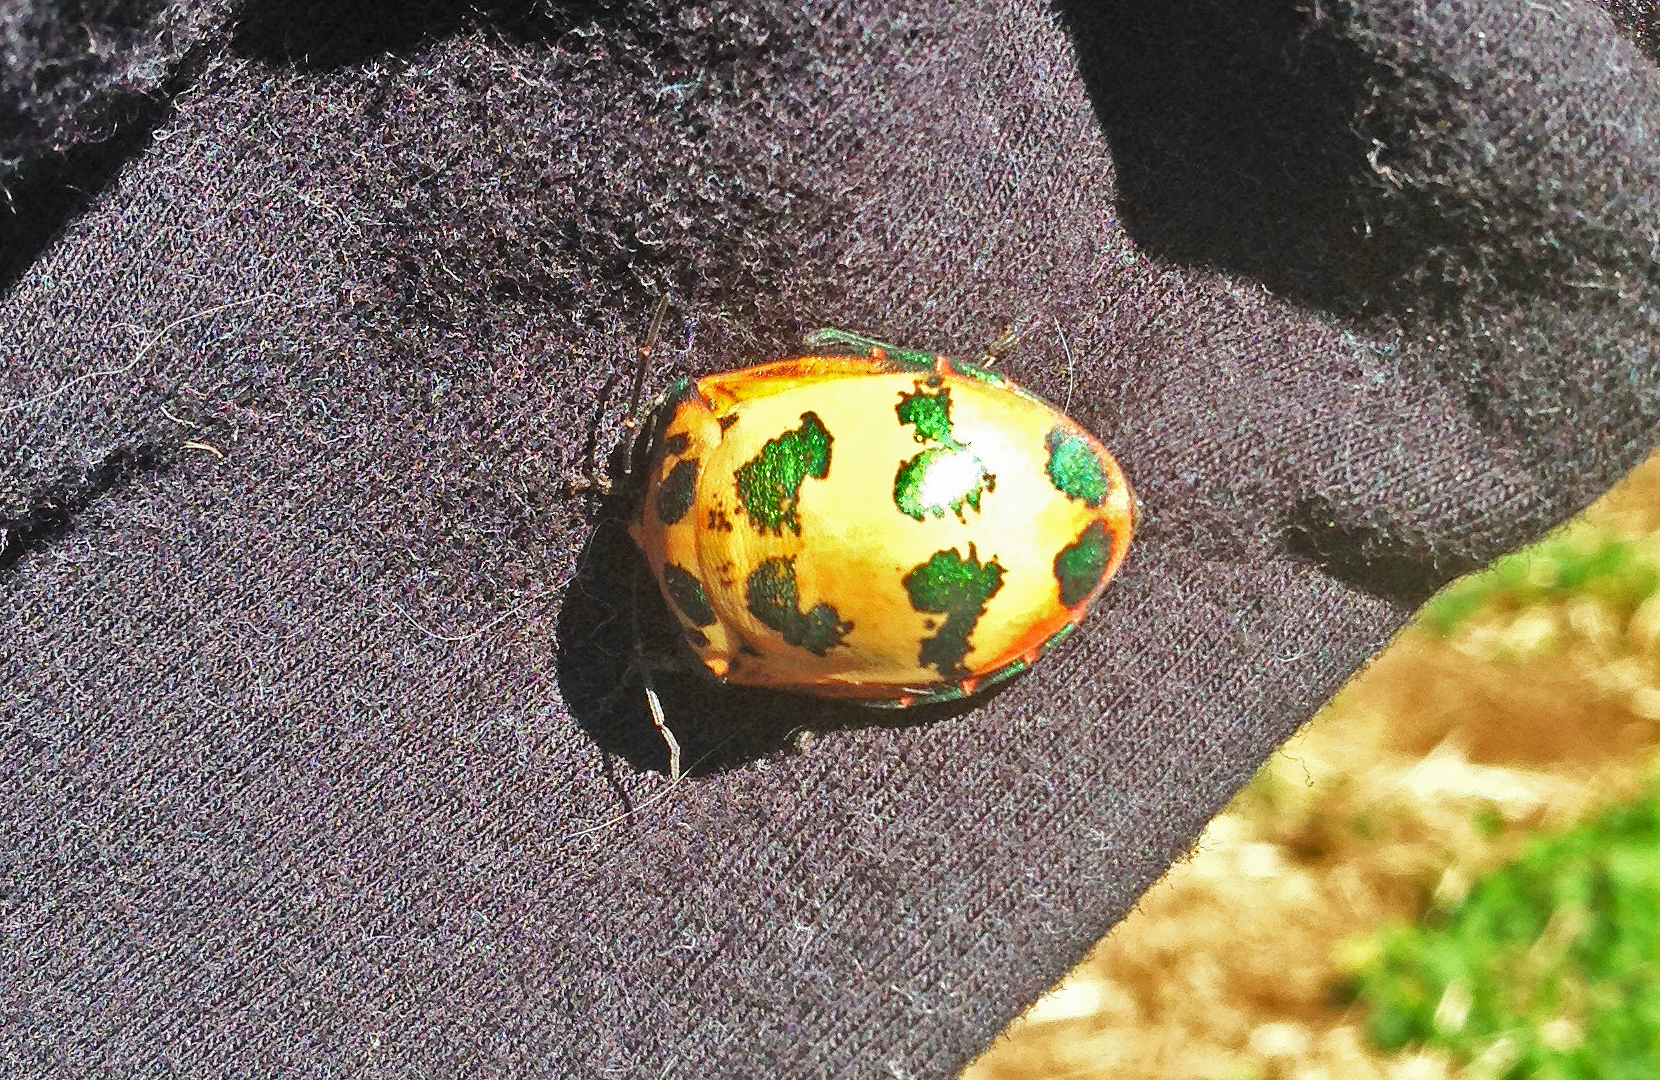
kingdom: Animalia
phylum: Arthropoda
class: Insecta
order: Hemiptera
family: Scutelleridae
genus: Tectocoris
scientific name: Tectocoris diophthalmus
